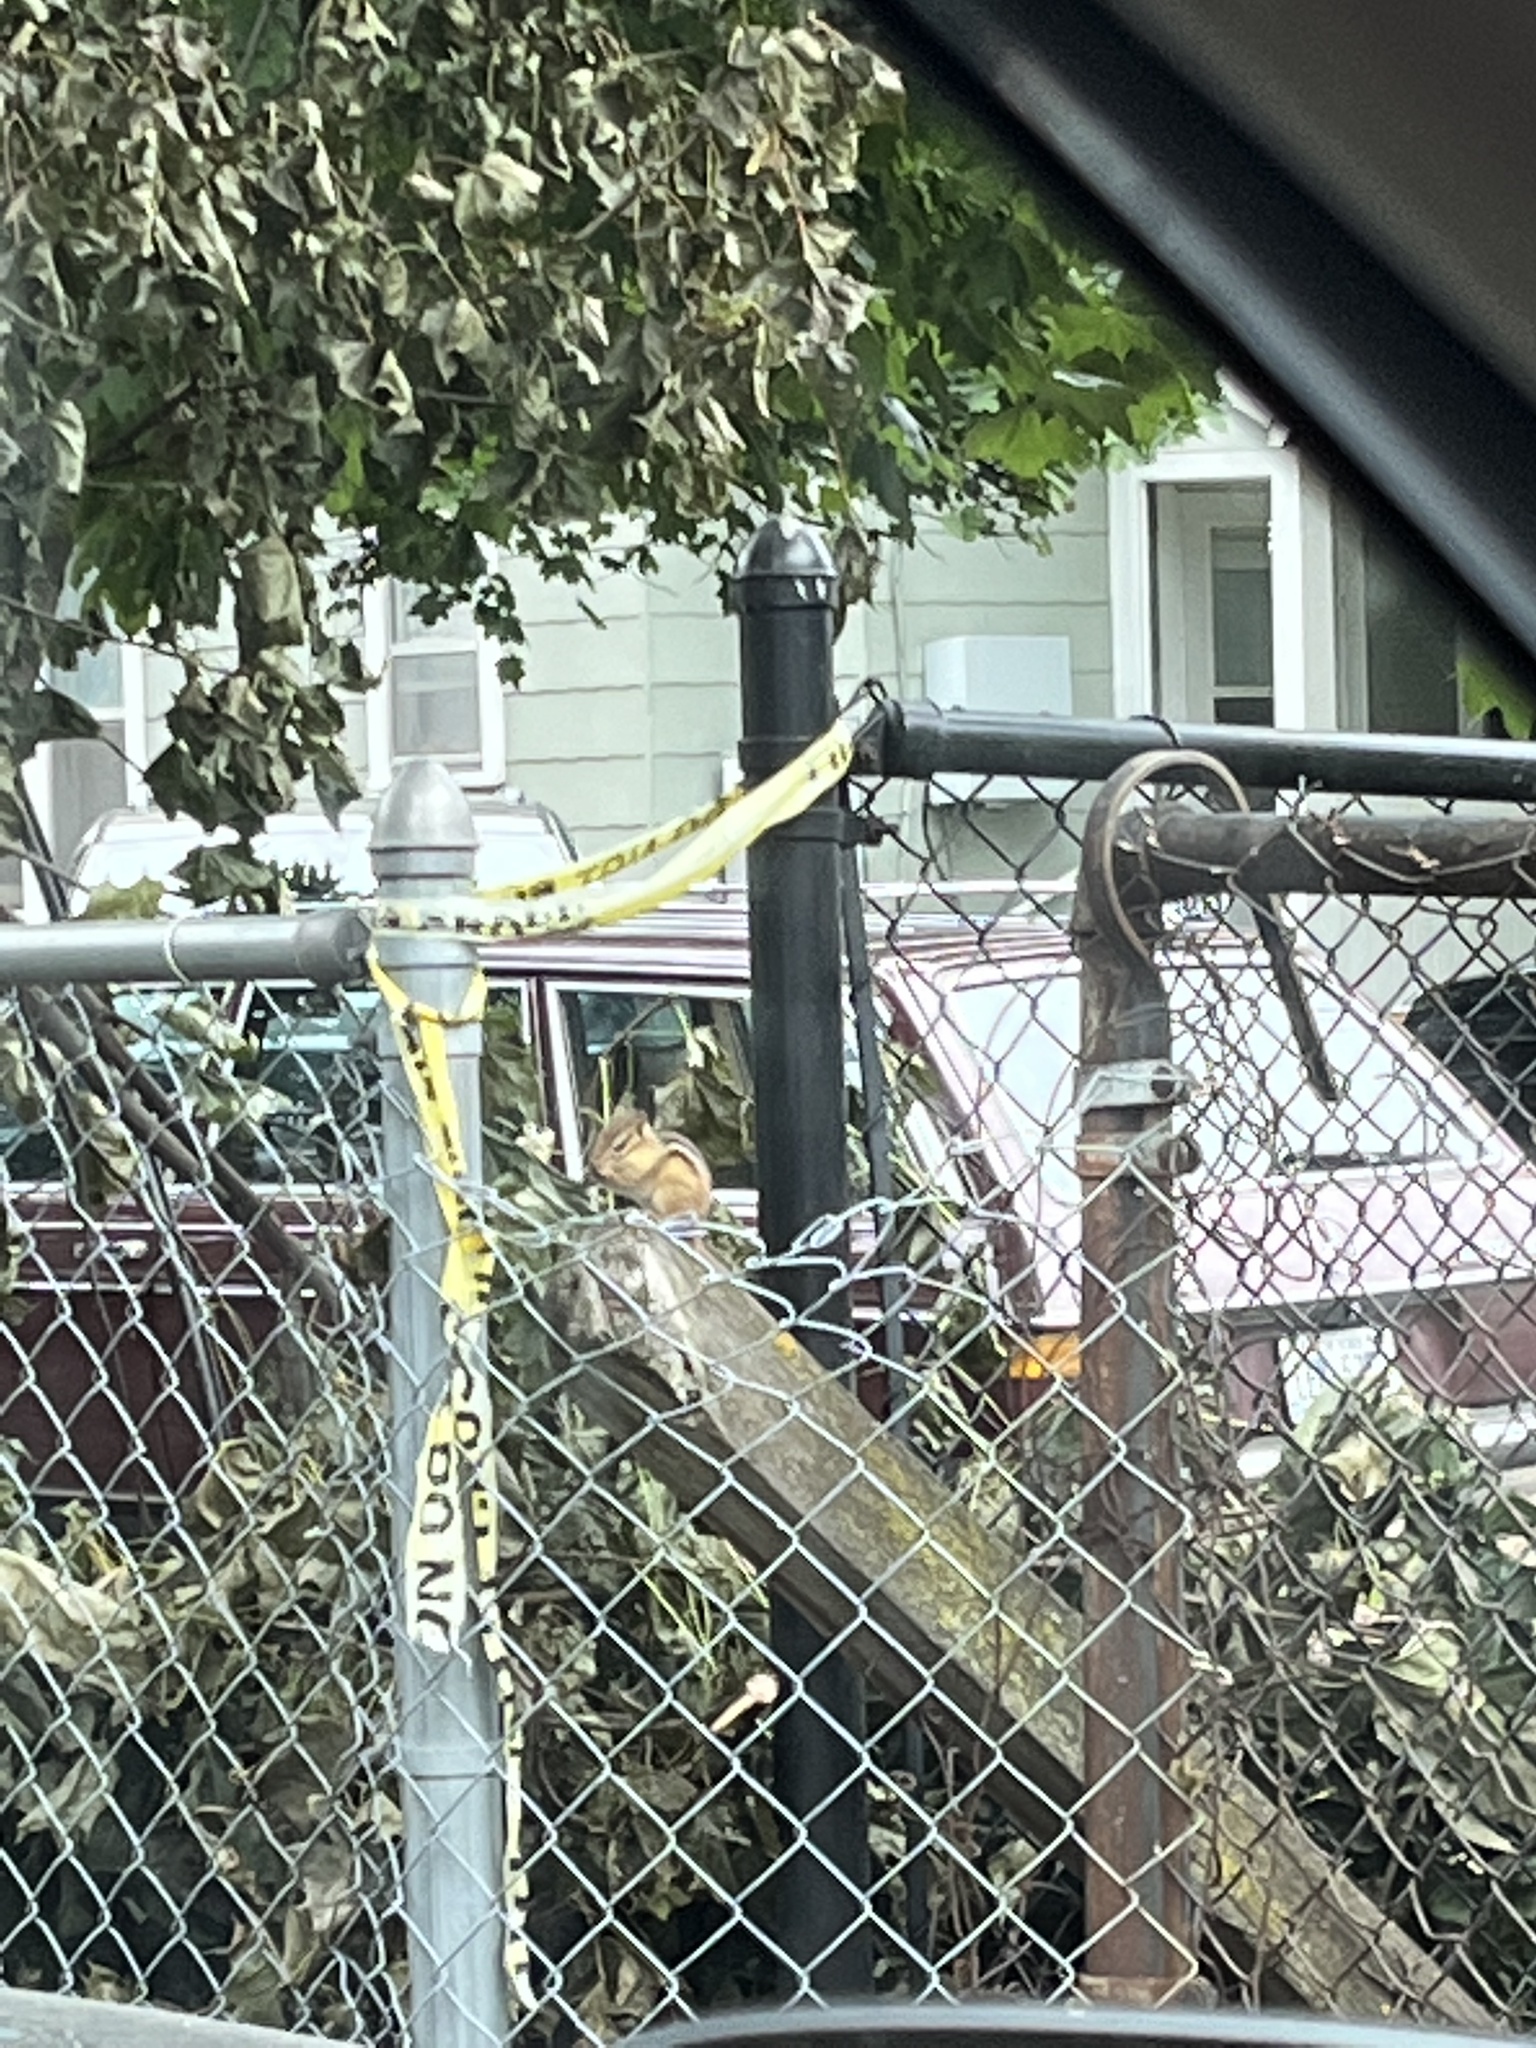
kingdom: Animalia
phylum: Chordata
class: Mammalia
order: Rodentia
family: Sciuridae
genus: Tamias
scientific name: Tamias striatus
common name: Eastern chipmunk
